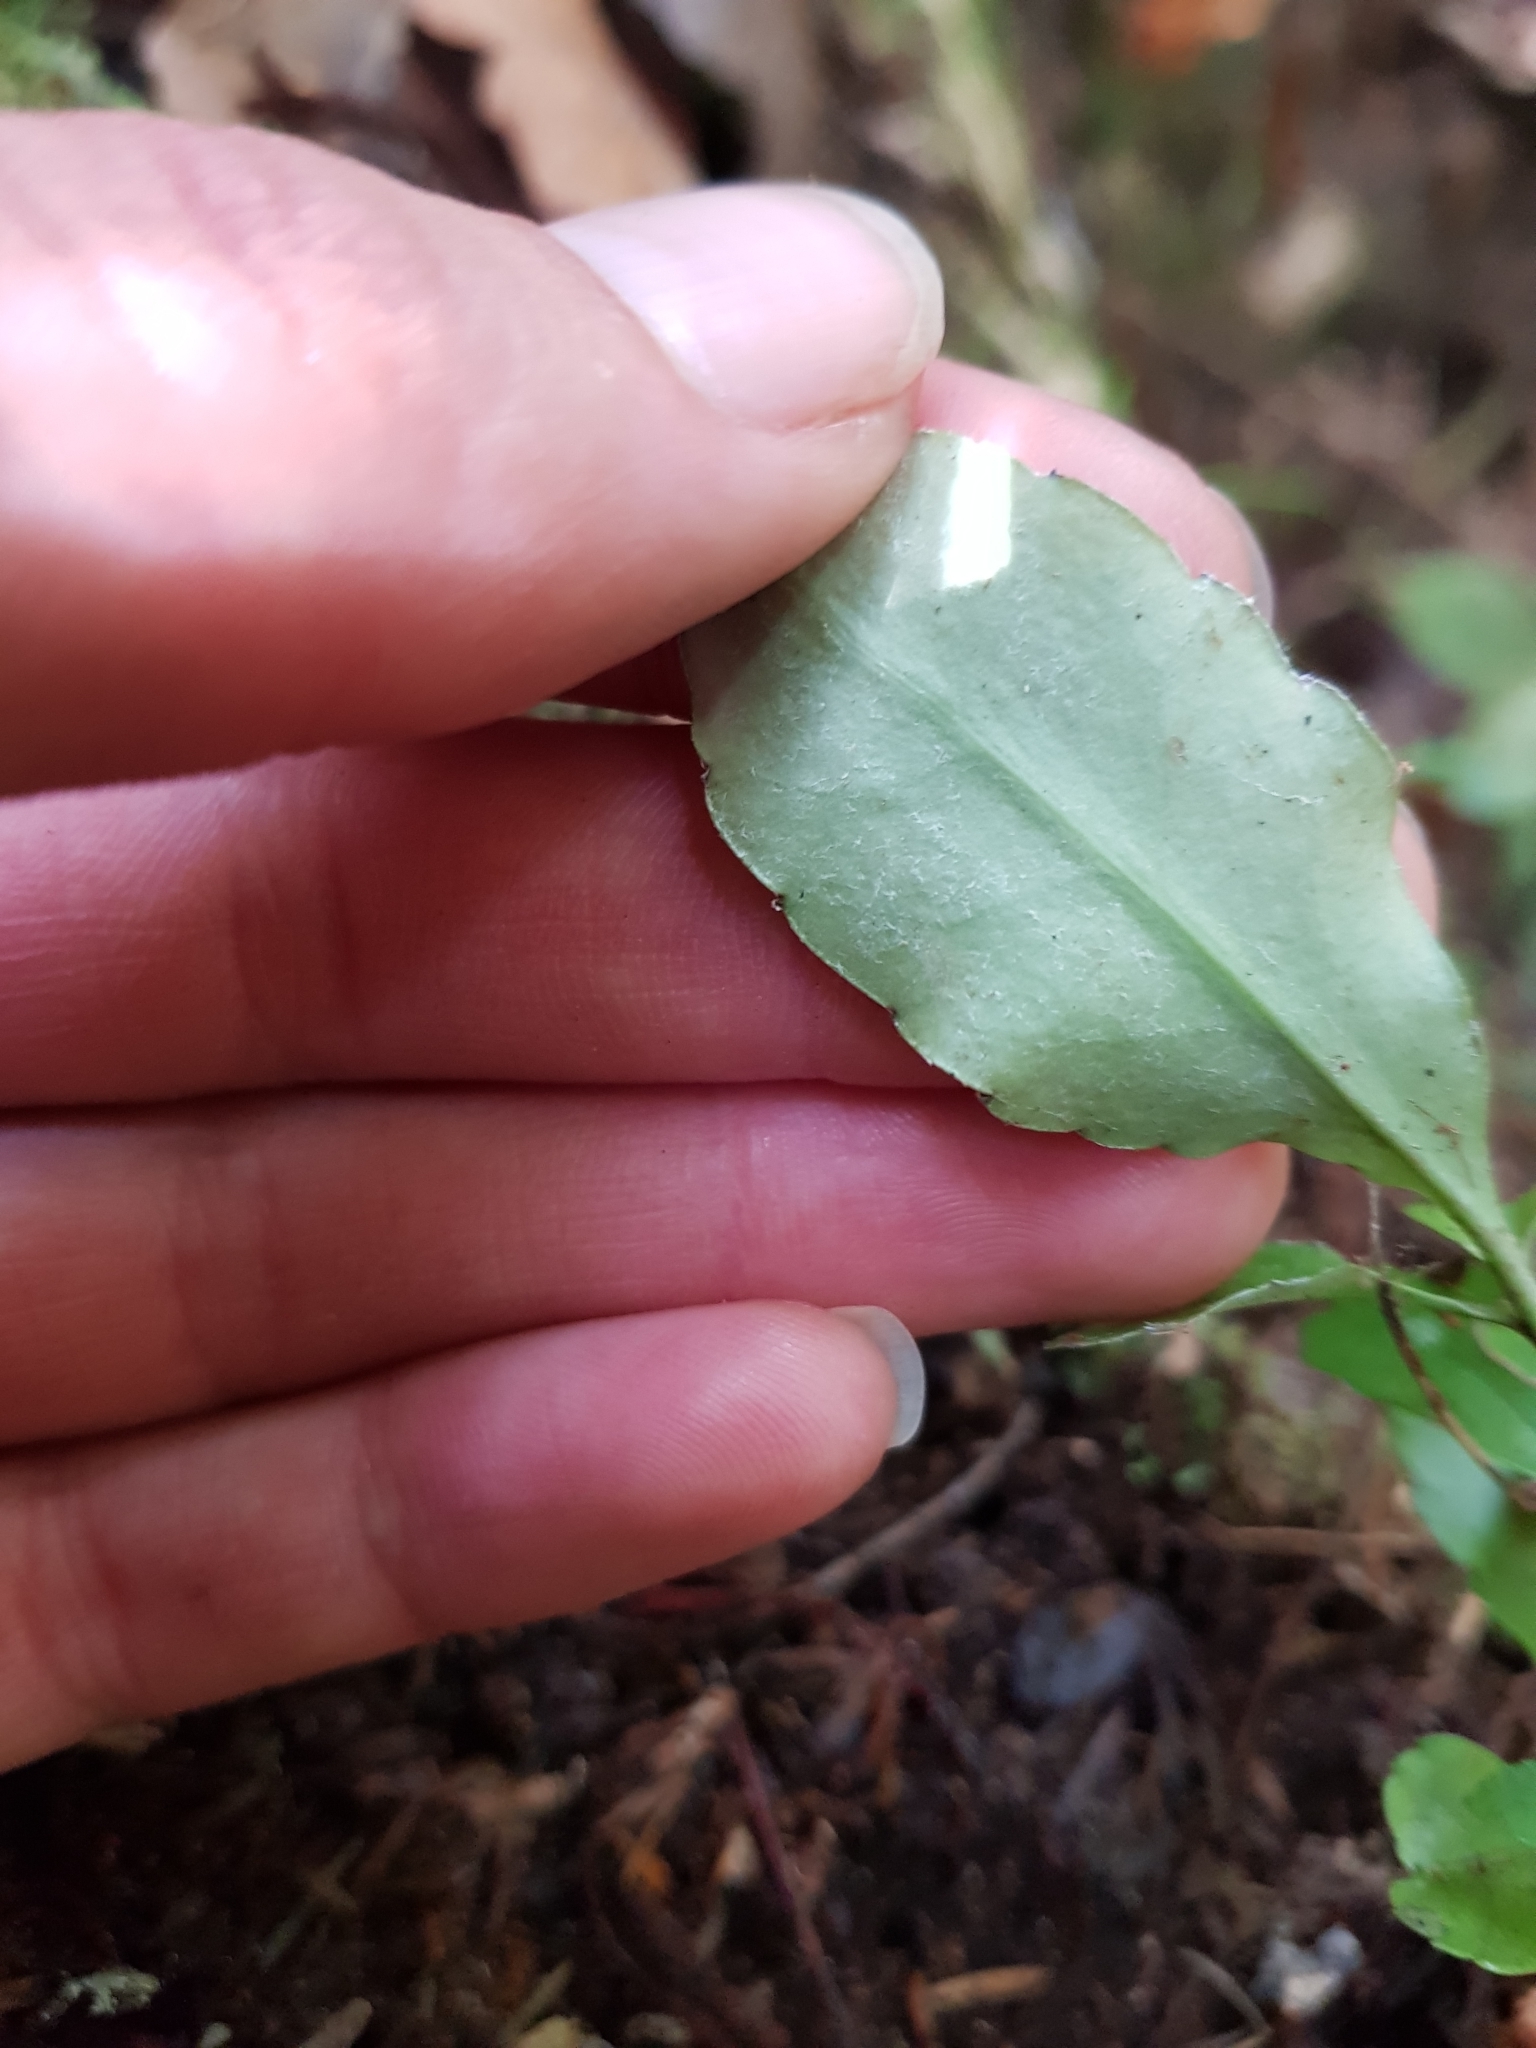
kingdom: Plantae
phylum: Tracheophyta
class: Magnoliopsida
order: Asterales
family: Alseuosmiaceae
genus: Alseuosmia
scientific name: Alseuosmia macrophylla
